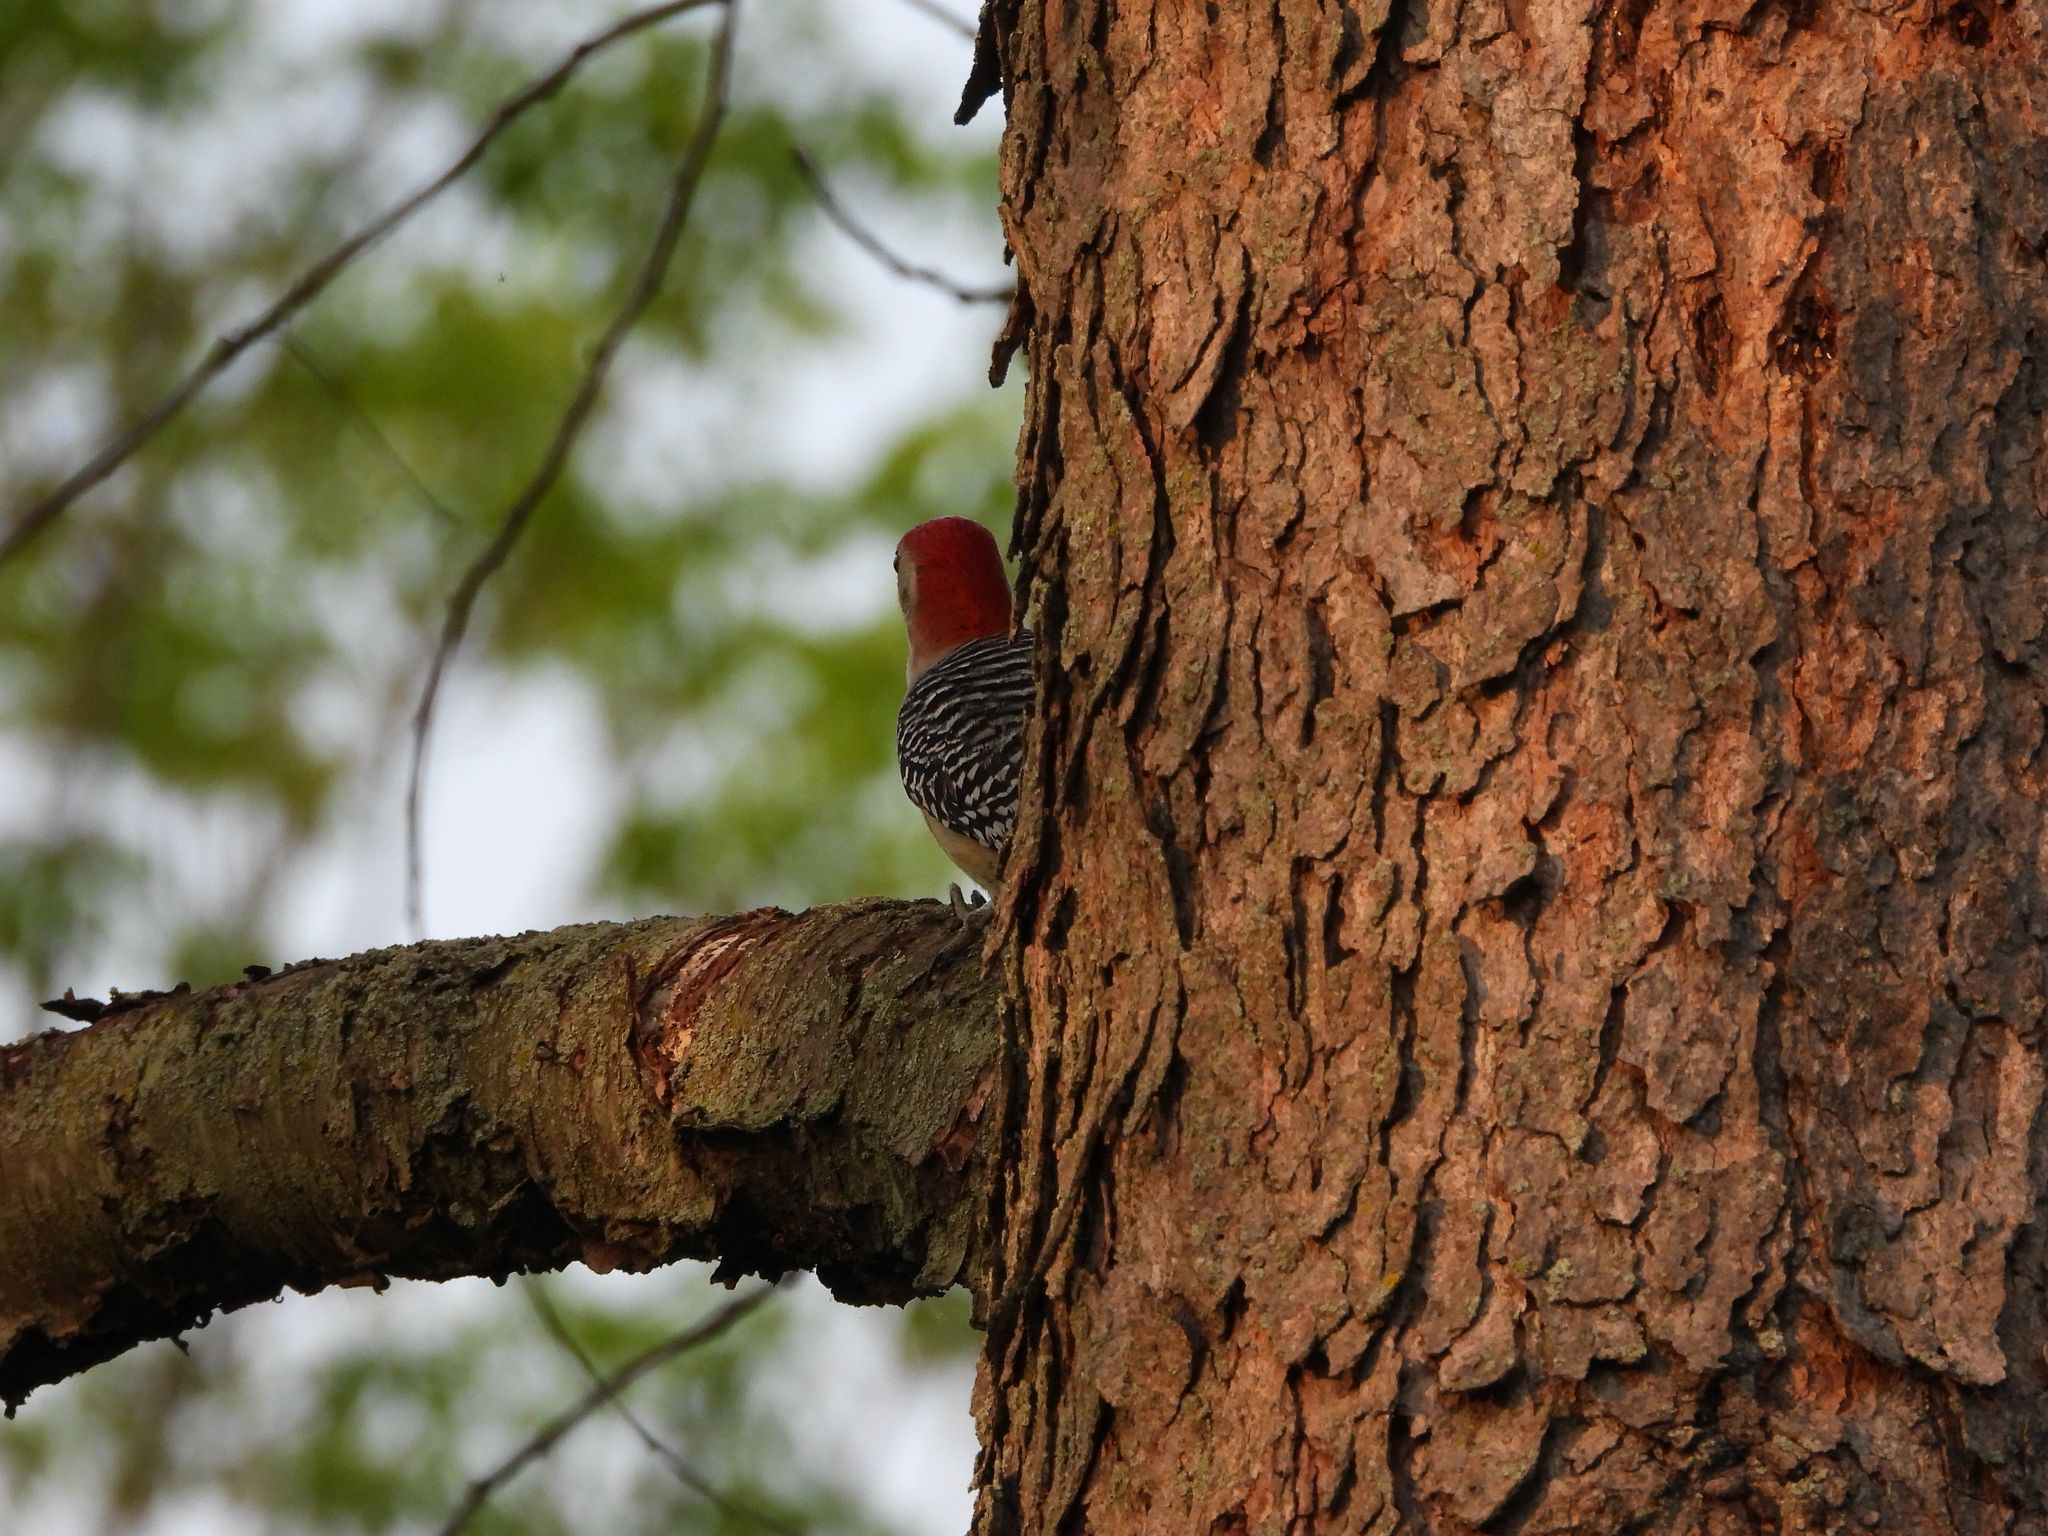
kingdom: Animalia
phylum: Chordata
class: Aves
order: Piciformes
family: Picidae
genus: Melanerpes
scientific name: Melanerpes carolinus
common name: Red-bellied woodpecker
